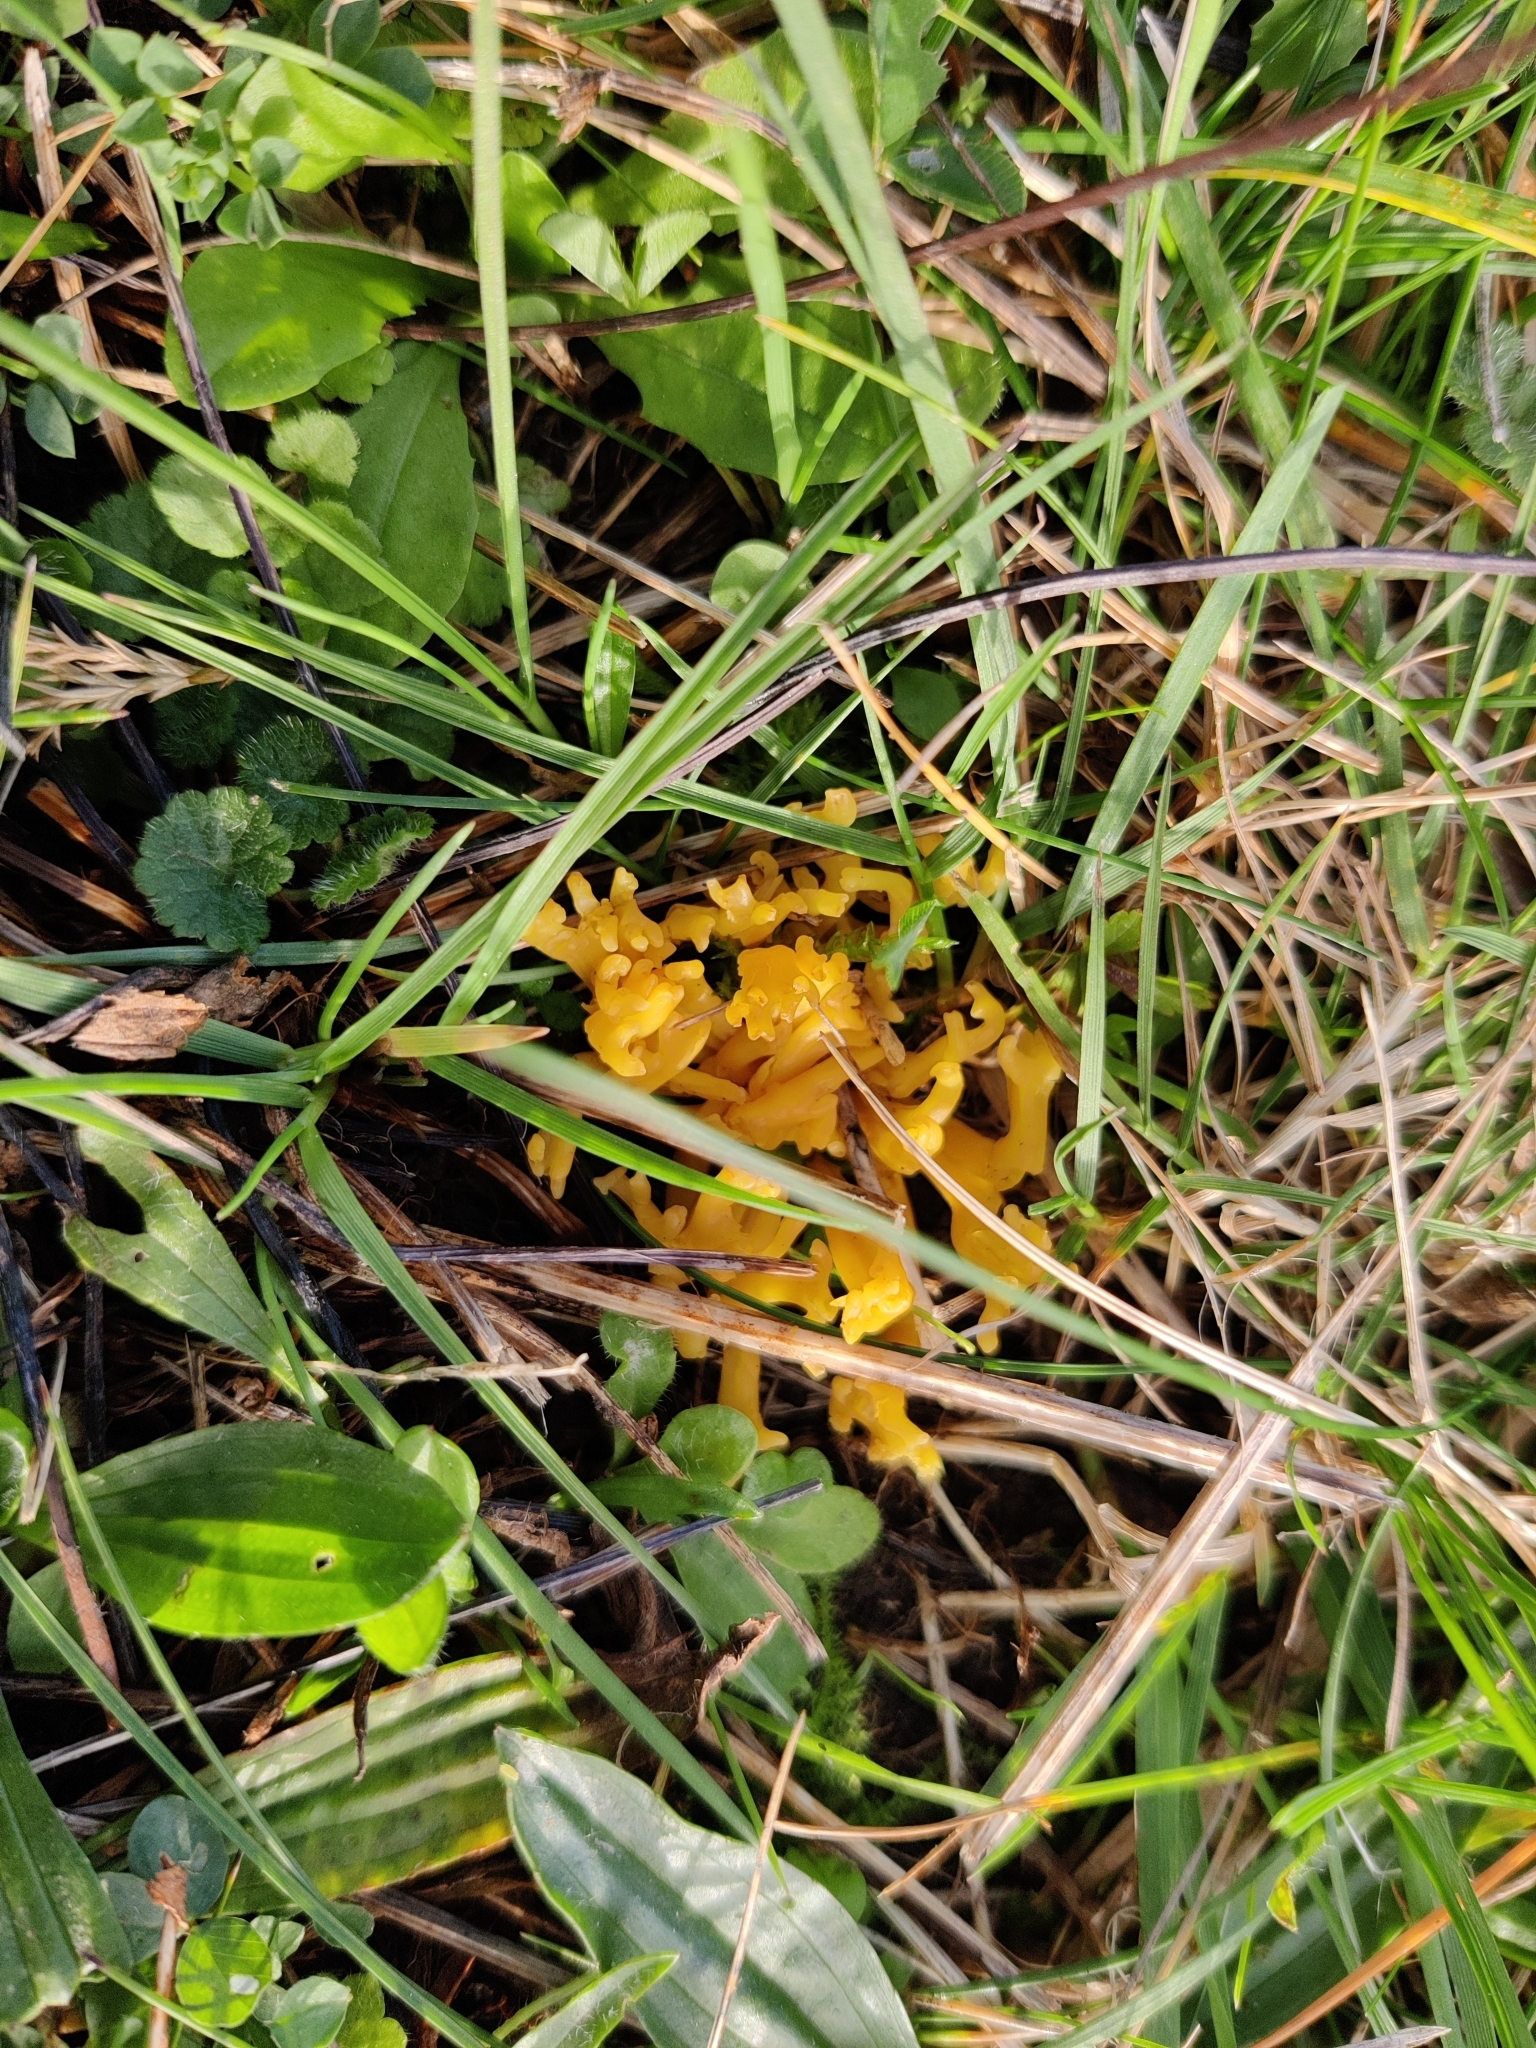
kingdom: Fungi
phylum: Basidiomycota
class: Agaricomycetes
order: Agaricales
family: Clavariaceae
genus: Clavulinopsis
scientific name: Clavulinopsis corniculata
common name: Meadow coral
